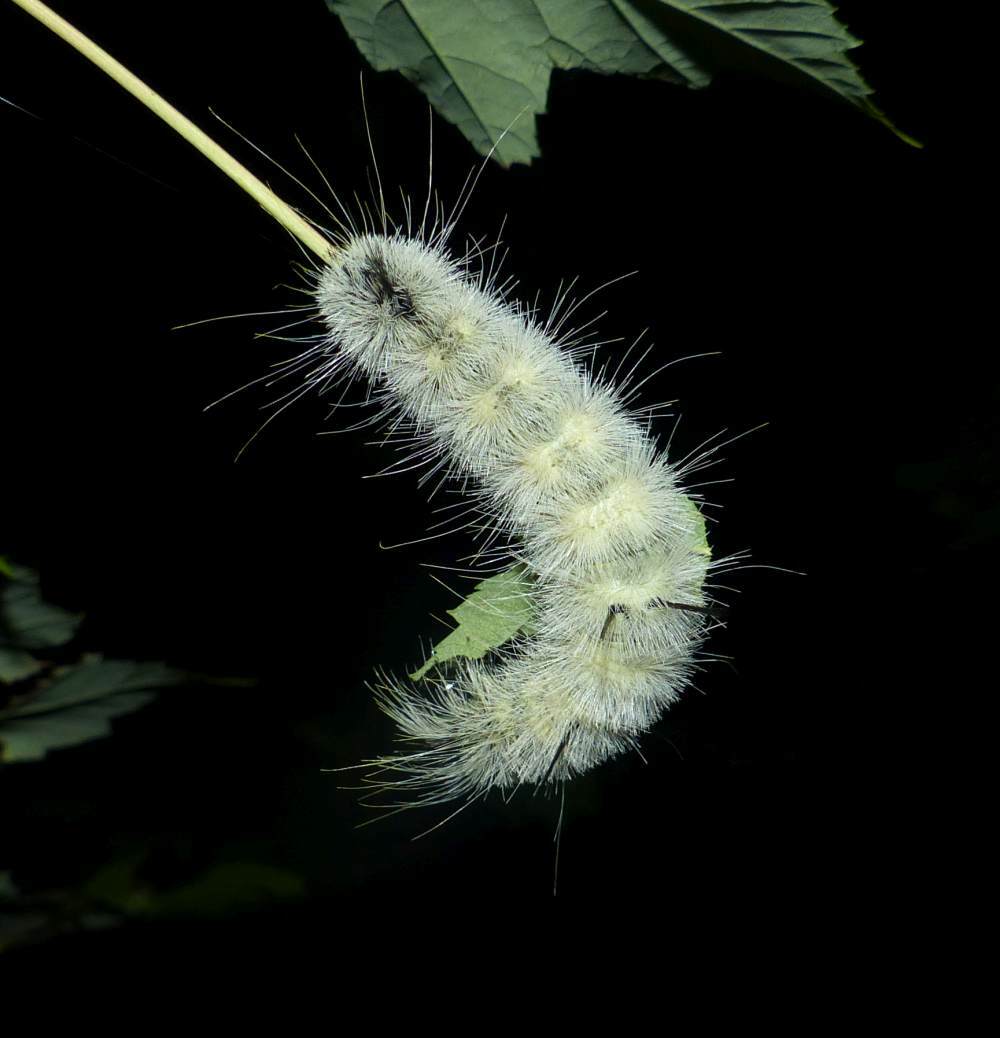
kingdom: Animalia
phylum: Arthropoda
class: Insecta
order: Lepidoptera
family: Noctuidae
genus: Acronicta
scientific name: Acronicta americana
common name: American dagger
